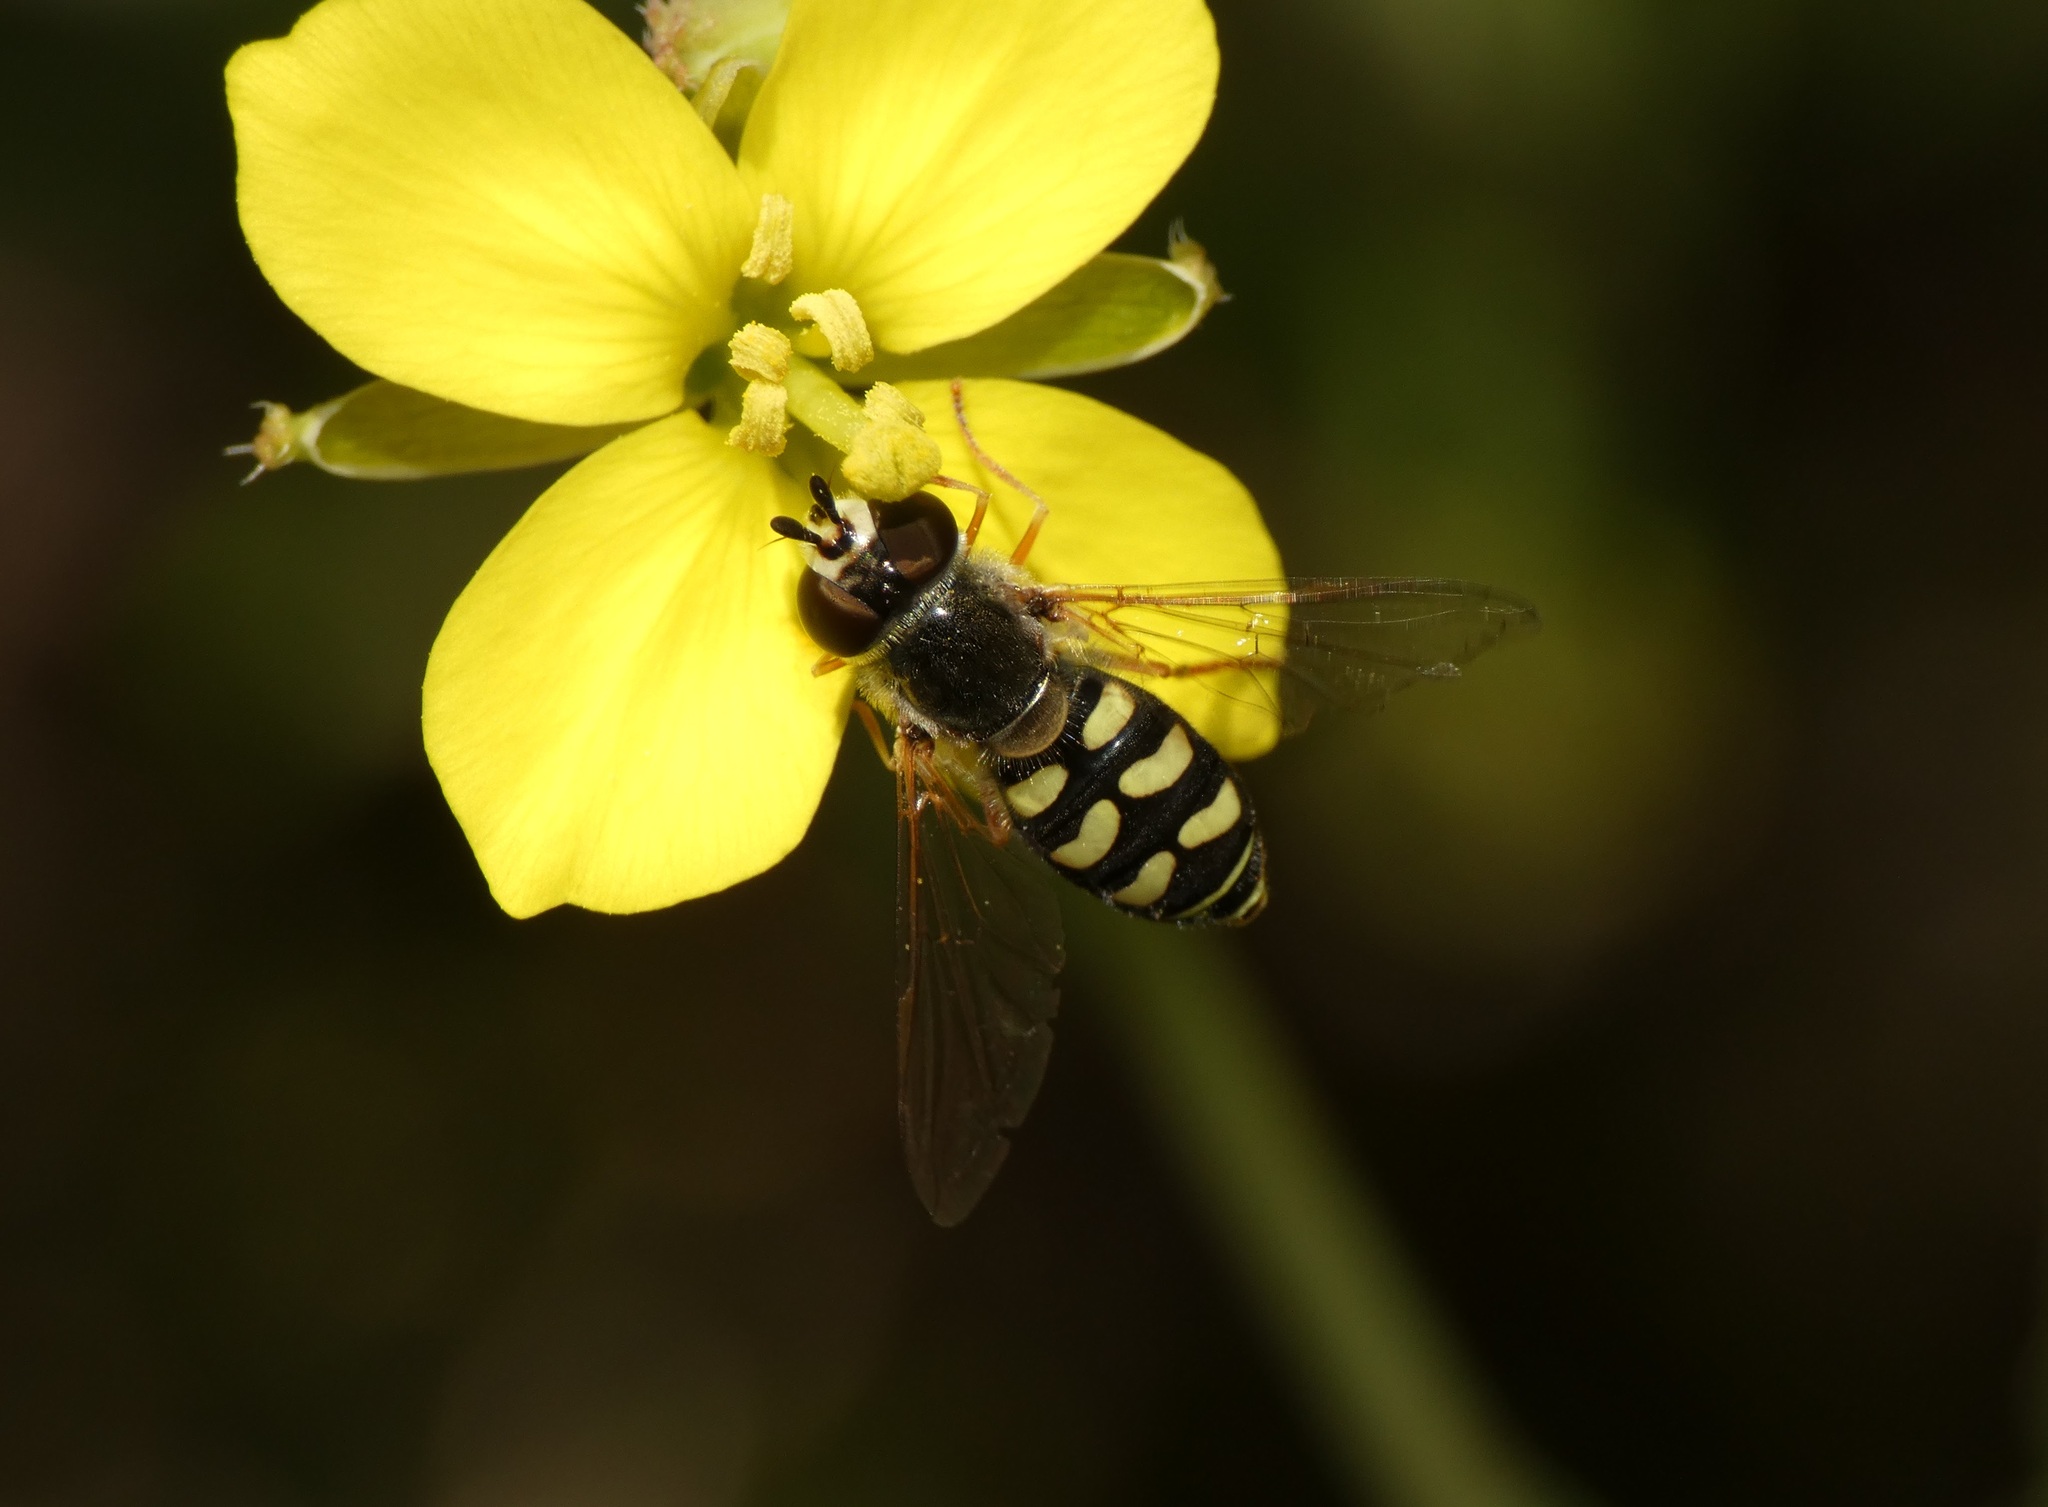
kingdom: Animalia
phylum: Arthropoda
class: Insecta
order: Diptera
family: Syrphidae
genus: Eupeodes
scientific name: Eupeodes volucris
